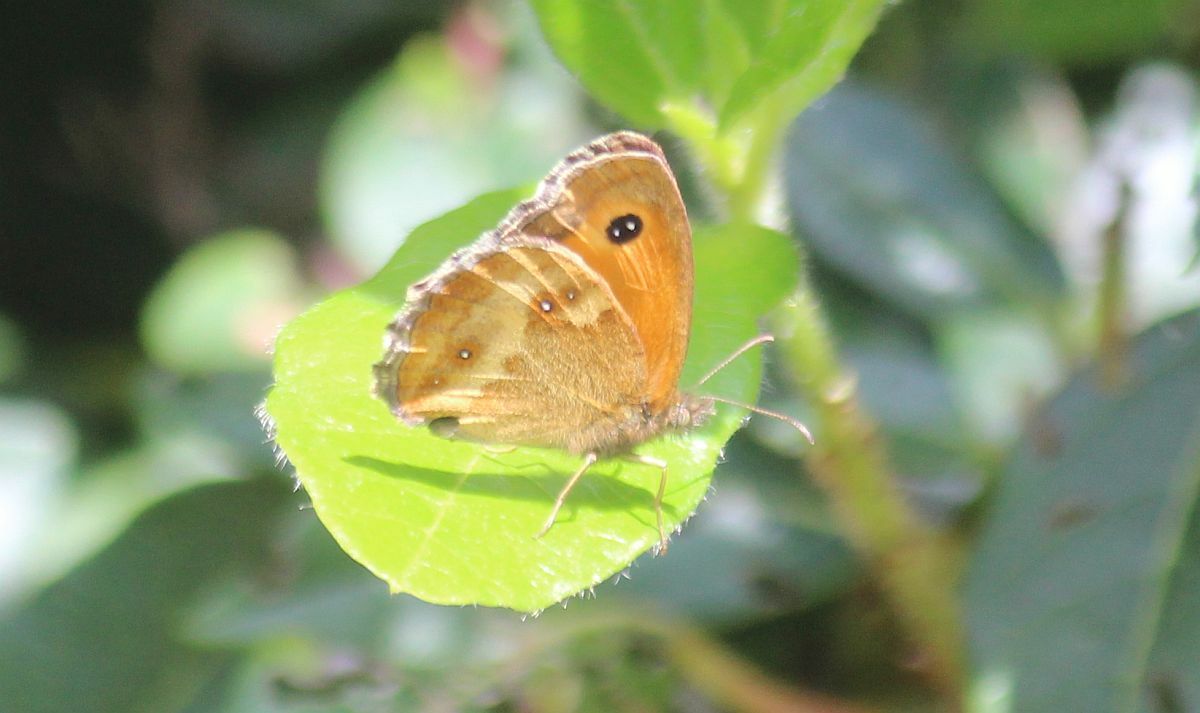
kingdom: Animalia
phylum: Arthropoda
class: Insecta
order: Lepidoptera
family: Nymphalidae
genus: Pyronia
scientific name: Pyronia tithonus
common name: Gatekeeper
